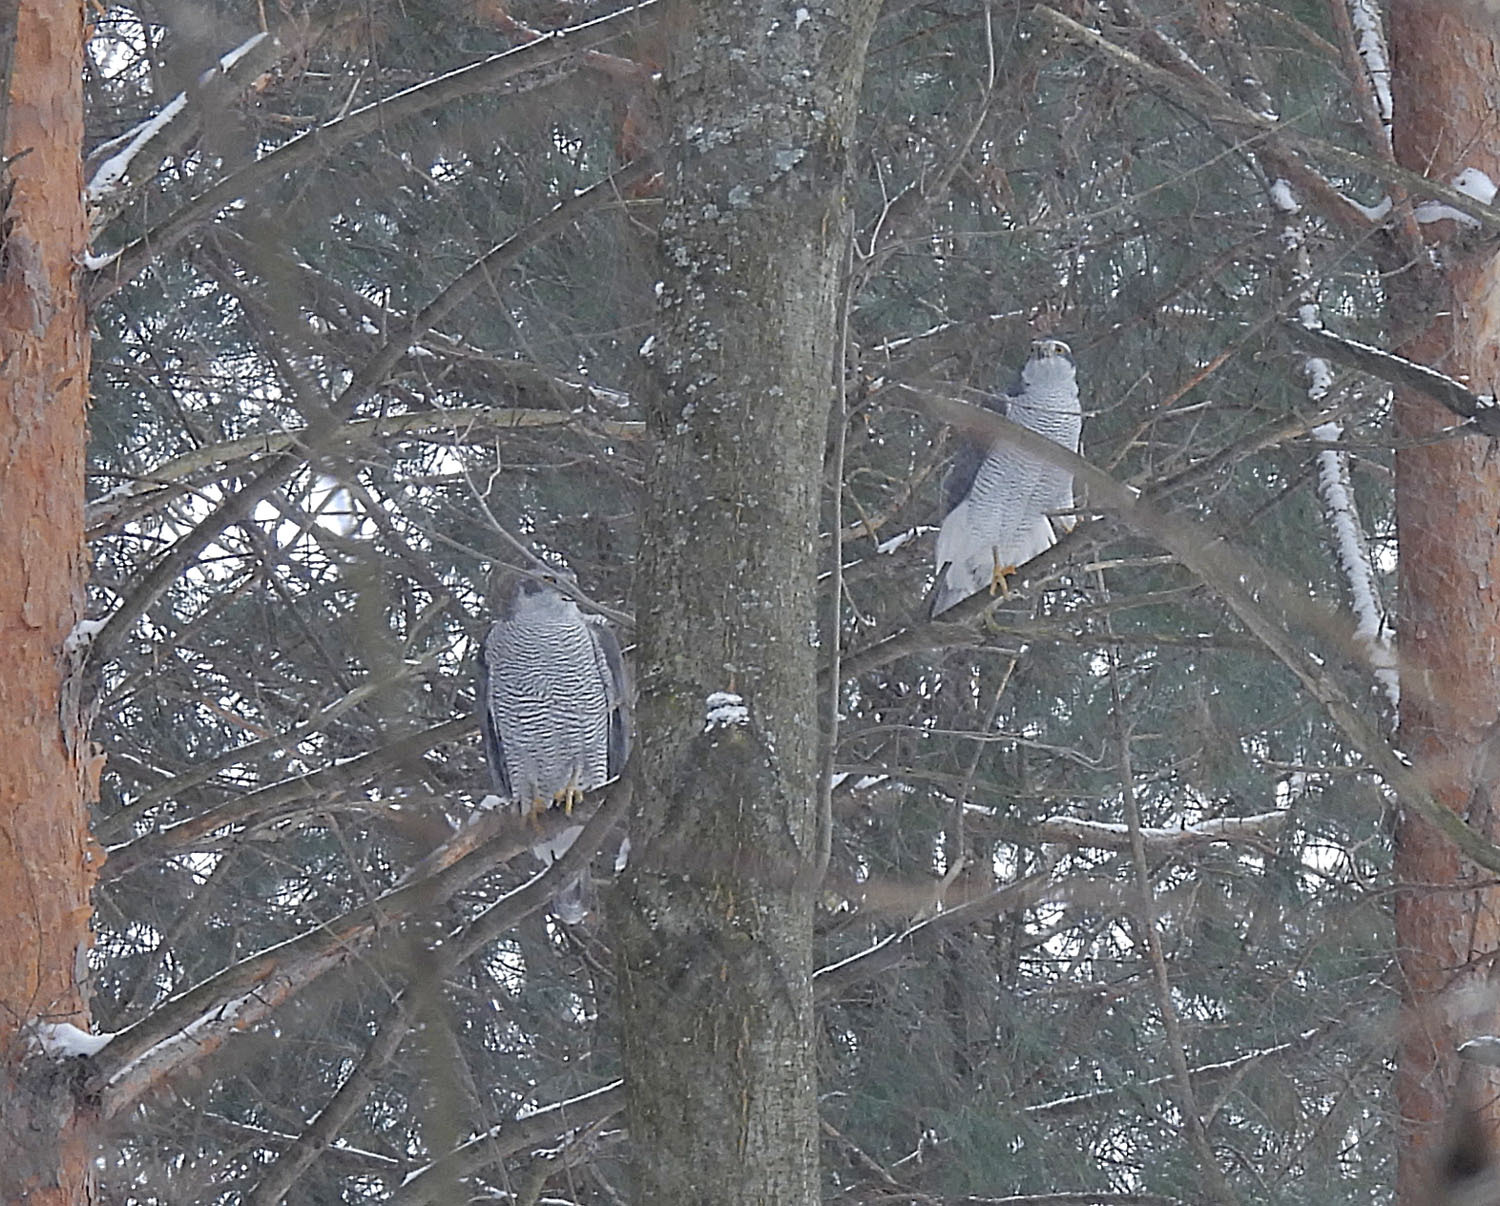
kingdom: Animalia
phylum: Chordata
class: Aves
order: Accipitriformes
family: Accipitridae
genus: Accipiter
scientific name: Accipiter gentilis
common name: Northern goshawk
